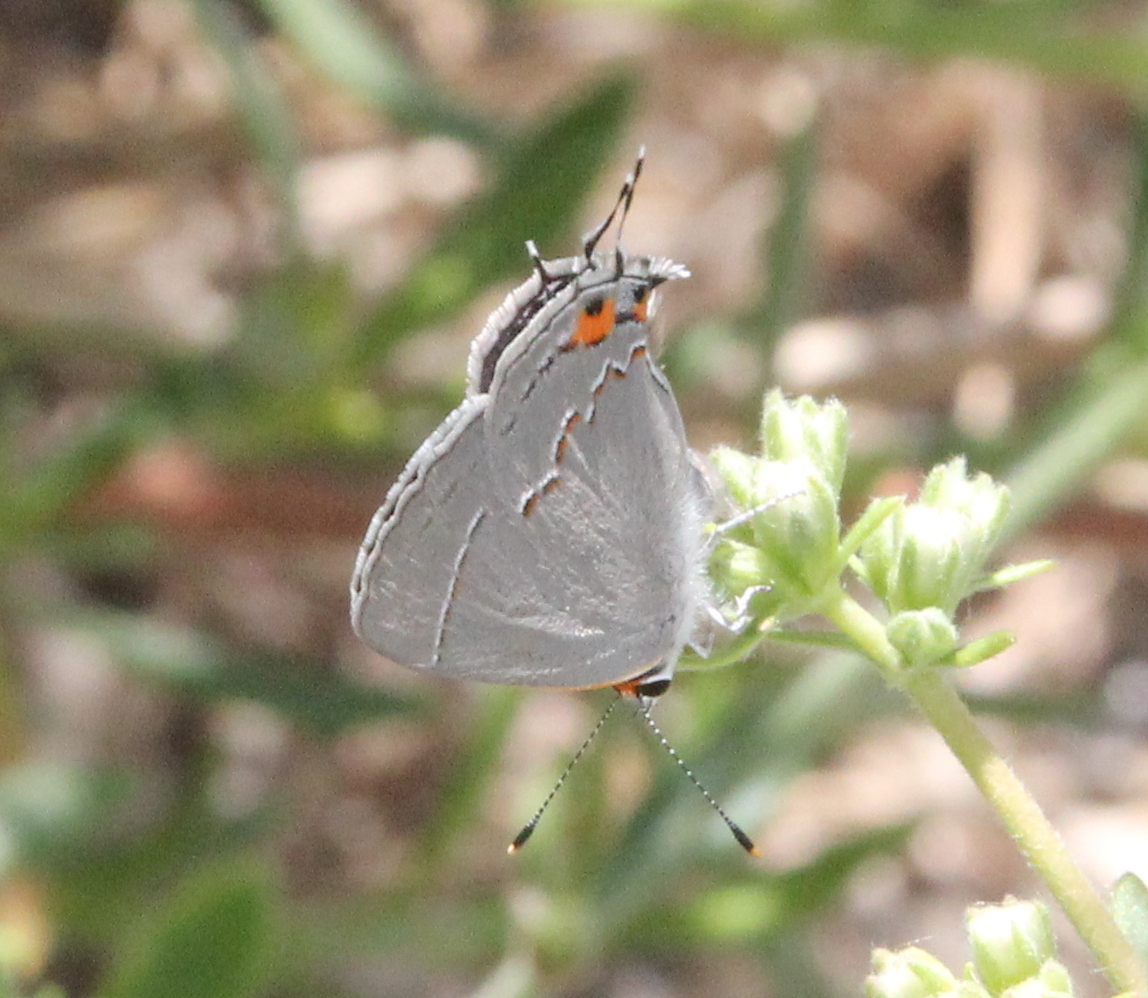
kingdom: Animalia
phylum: Arthropoda
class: Insecta
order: Lepidoptera
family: Lycaenidae
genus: Strymon
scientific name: Strymon melinus
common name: Gray hairstreak
